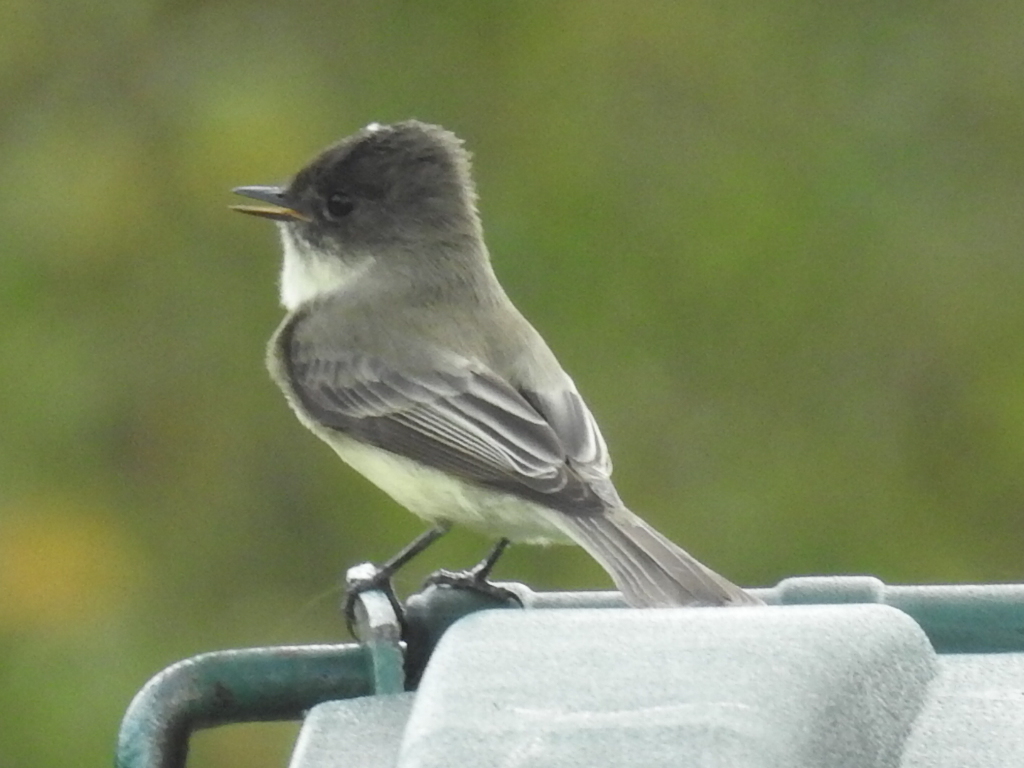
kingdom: Animalia
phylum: Chordata
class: Aves
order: Passeriformes
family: Tyrannidae
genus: Sayornis
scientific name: Sayornis phoebe
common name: Eastern phoebe
